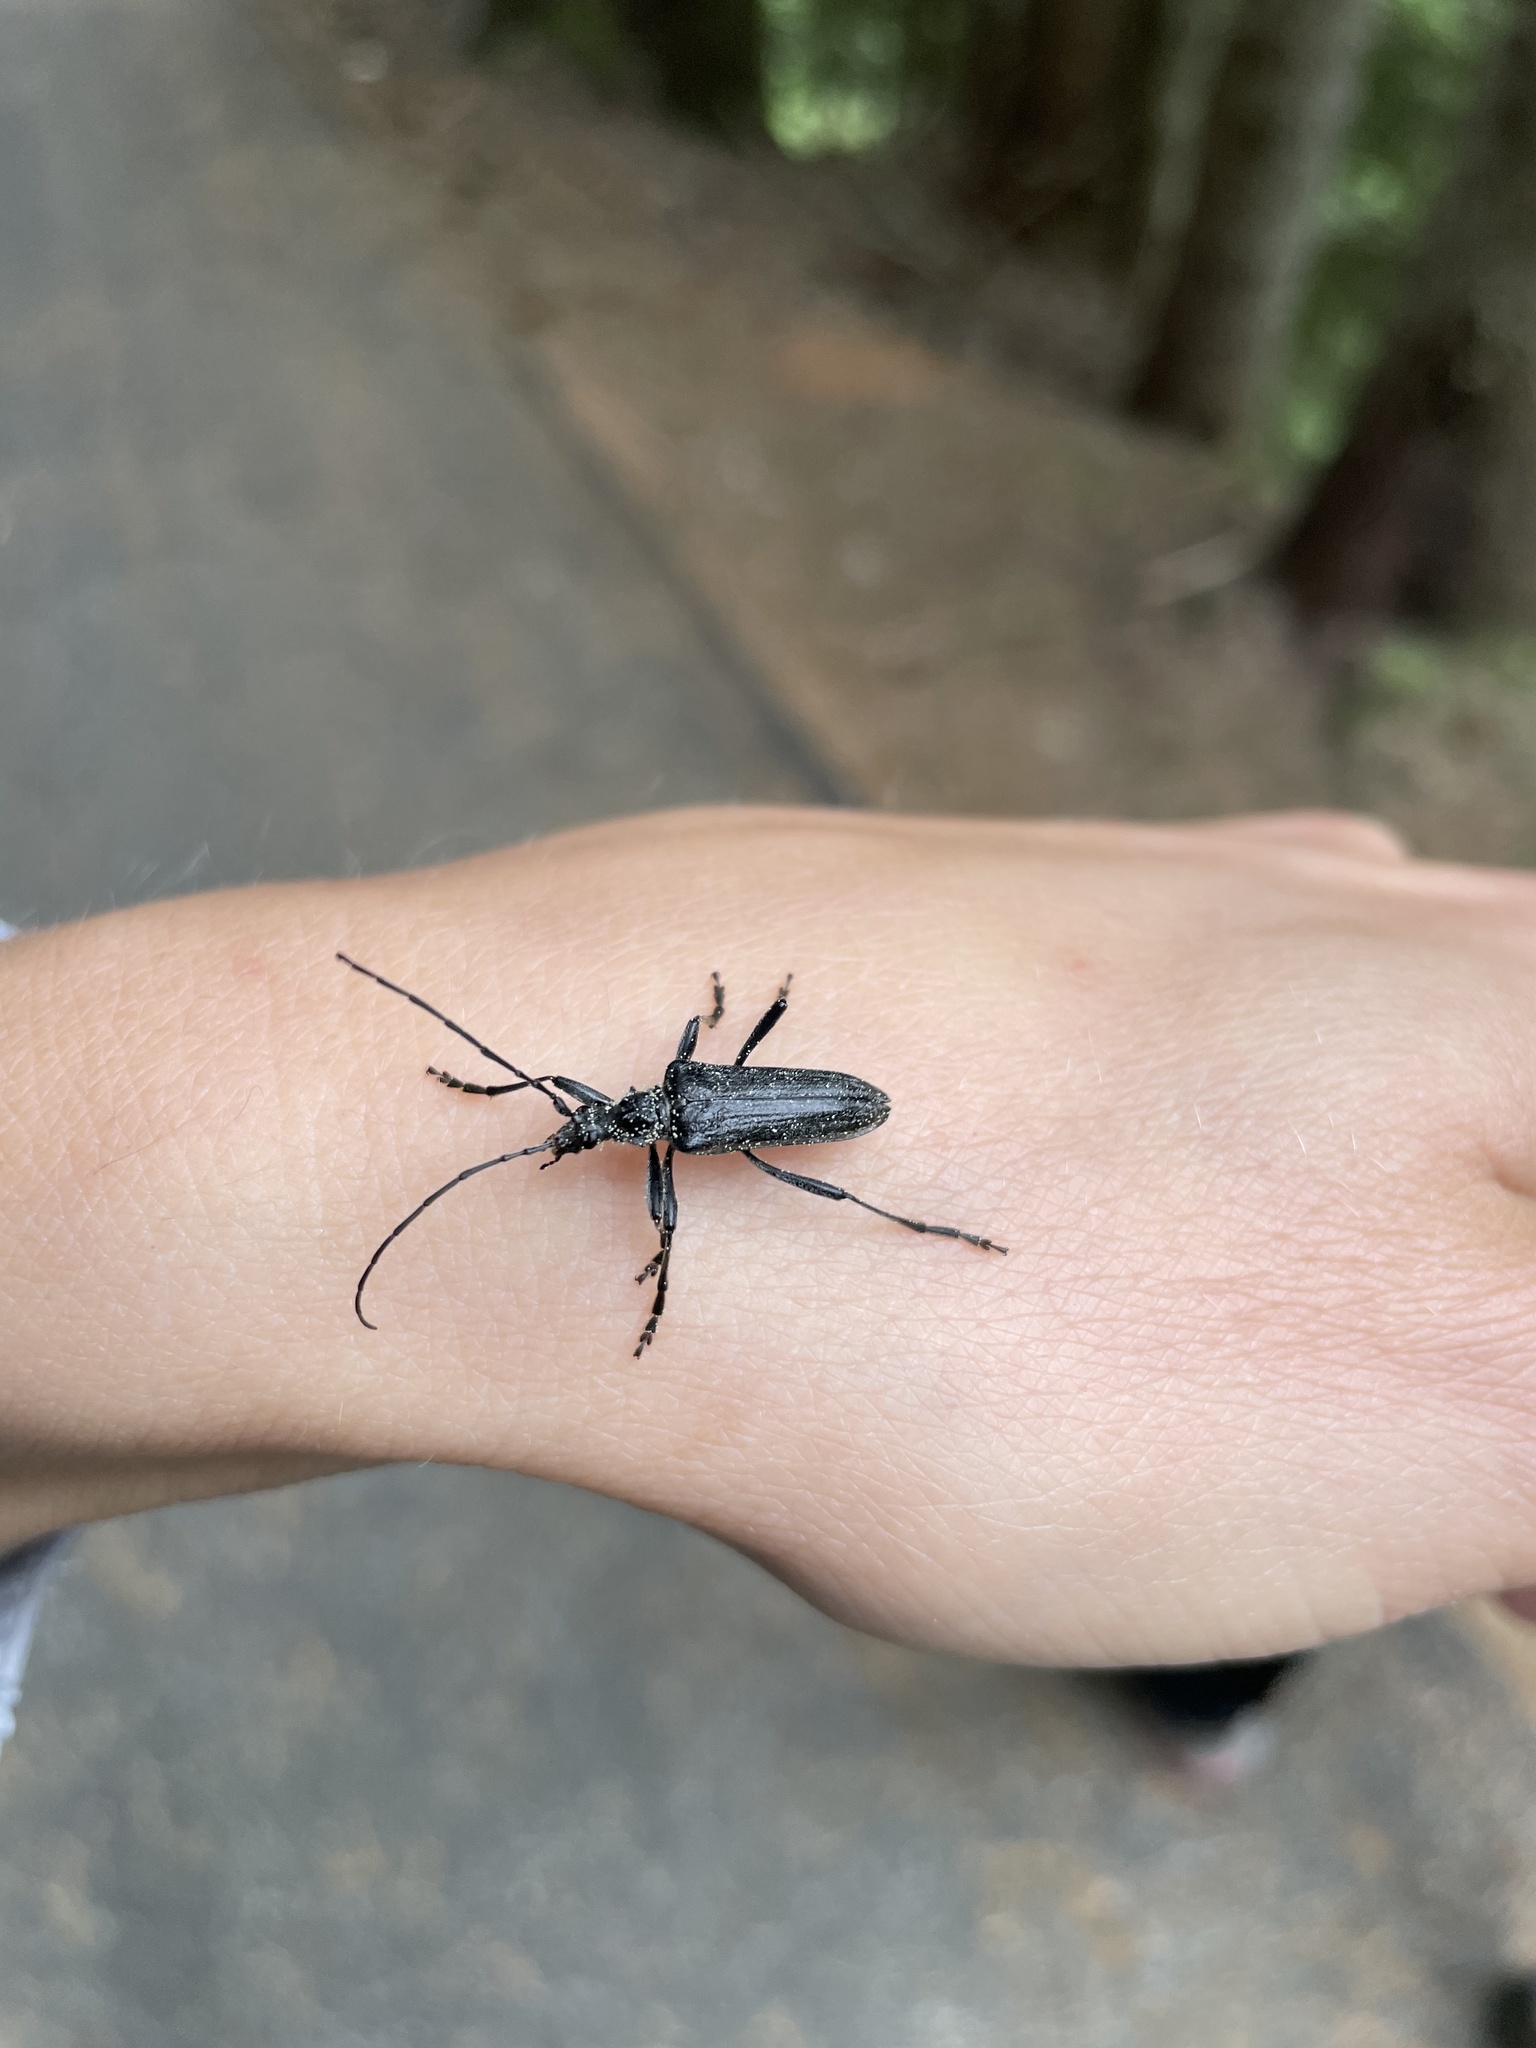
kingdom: Animalia
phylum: Arthropoda
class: Insecta
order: Coleoptera
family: Cerambycidae
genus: Oxymirus
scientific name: Oxymirus cursor
